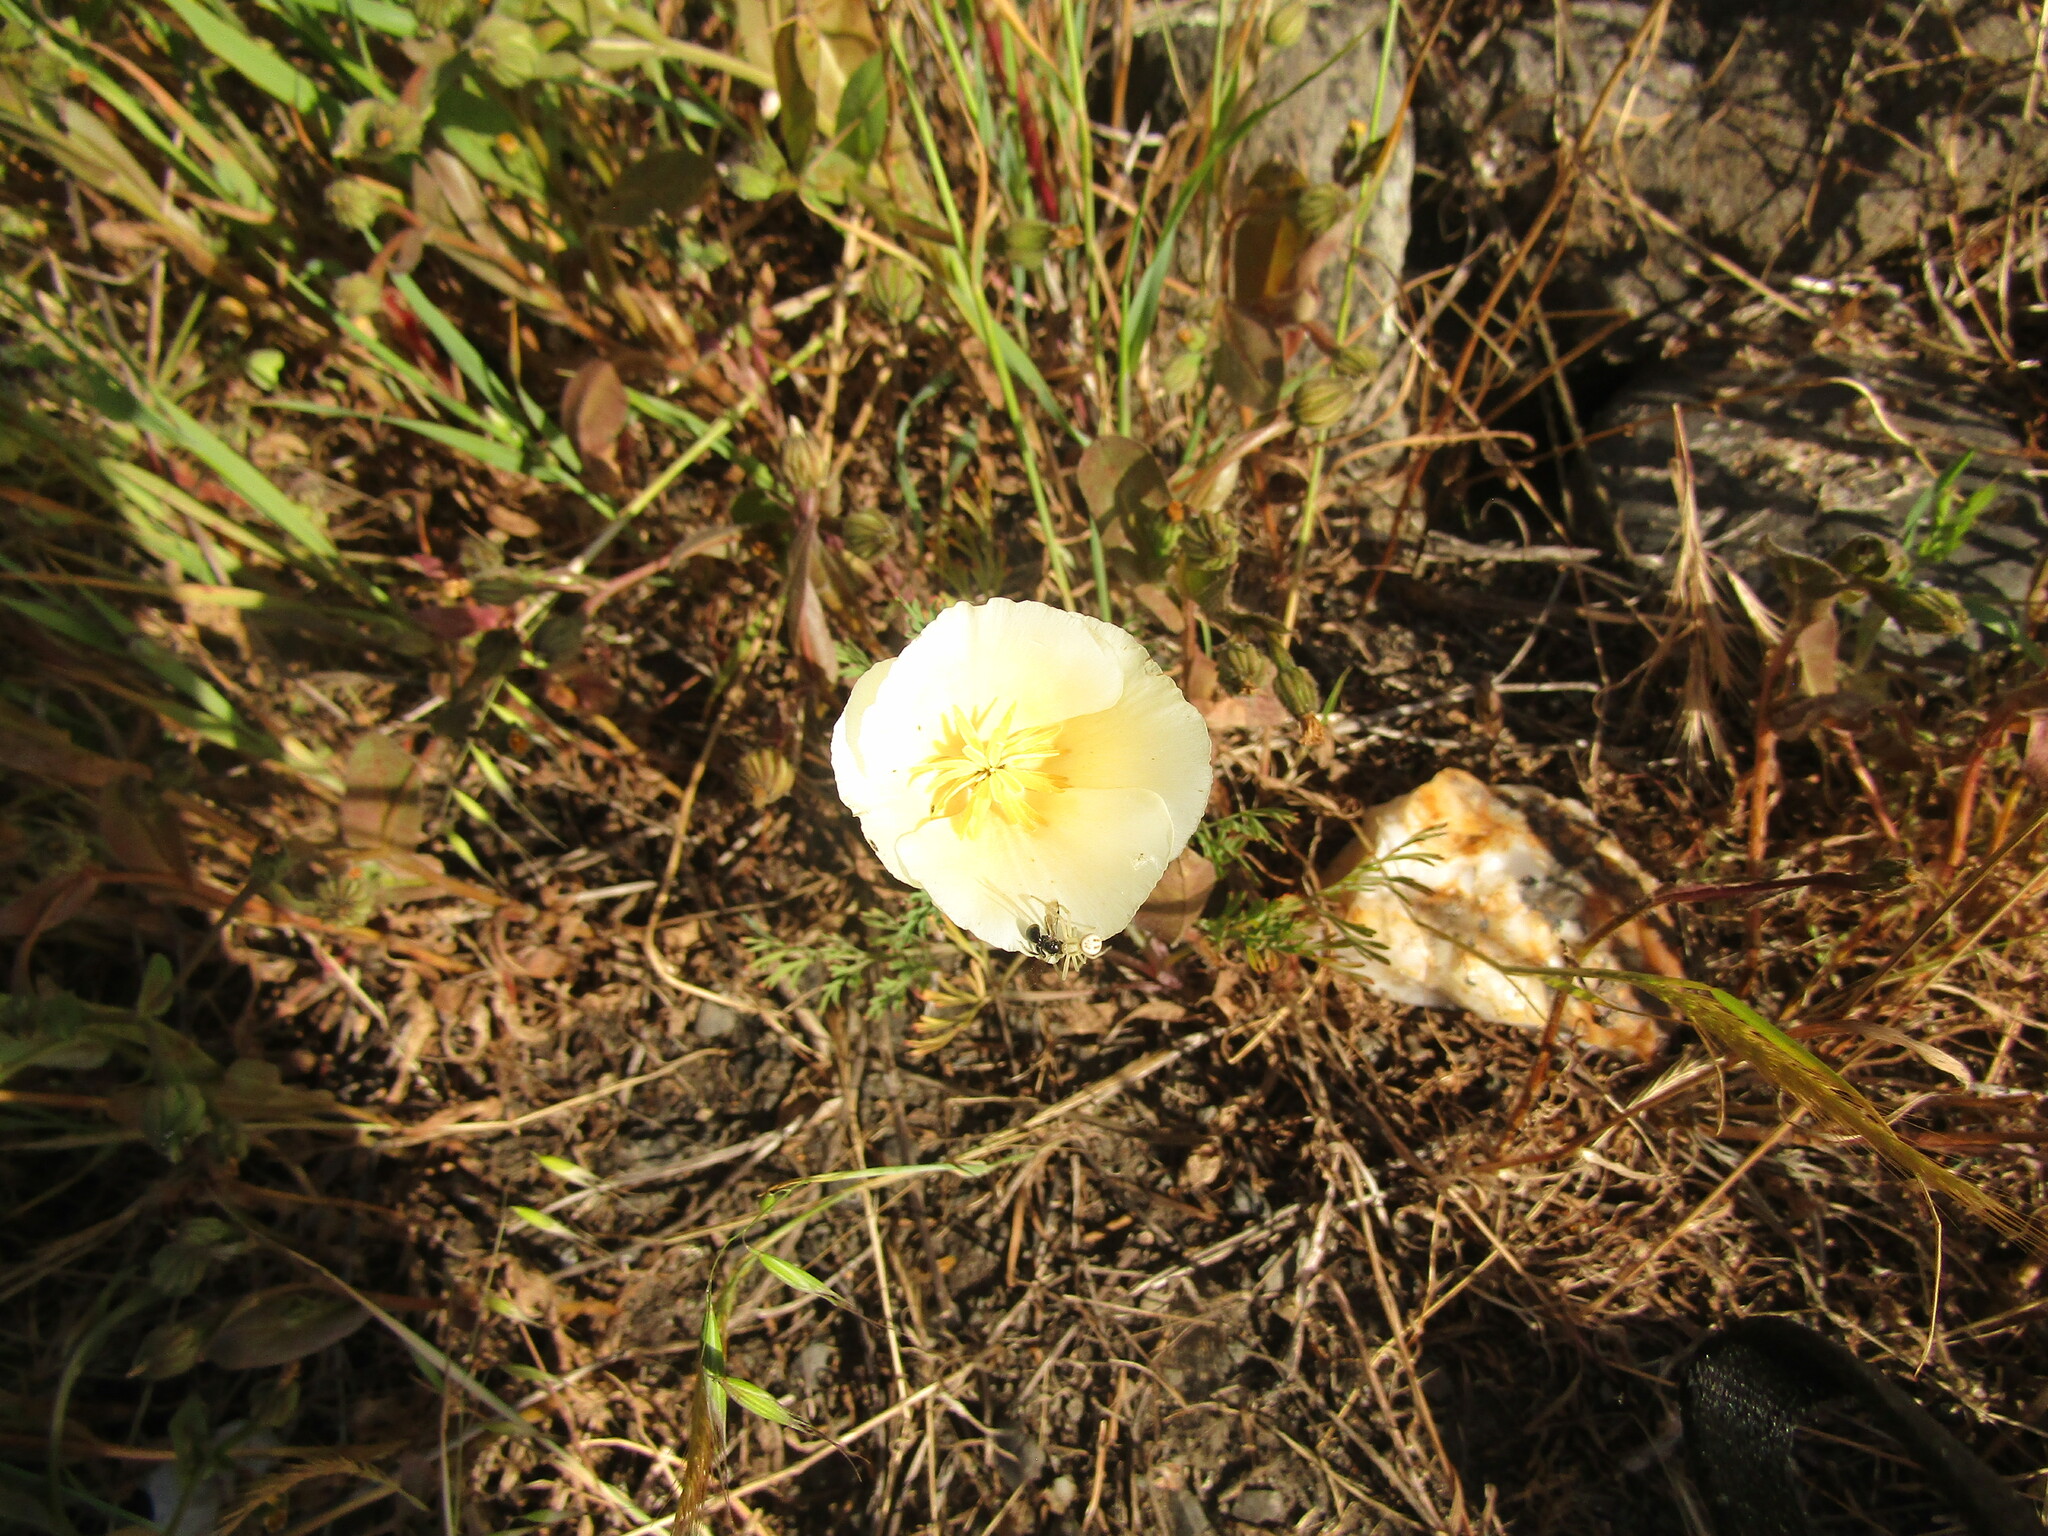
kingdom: Plantae
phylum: Tracheophyta
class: Magnoliopsida
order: Ranunculales
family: Papaveraceae
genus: Eschscholzia
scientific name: Eschscholzia californica
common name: California poppy
